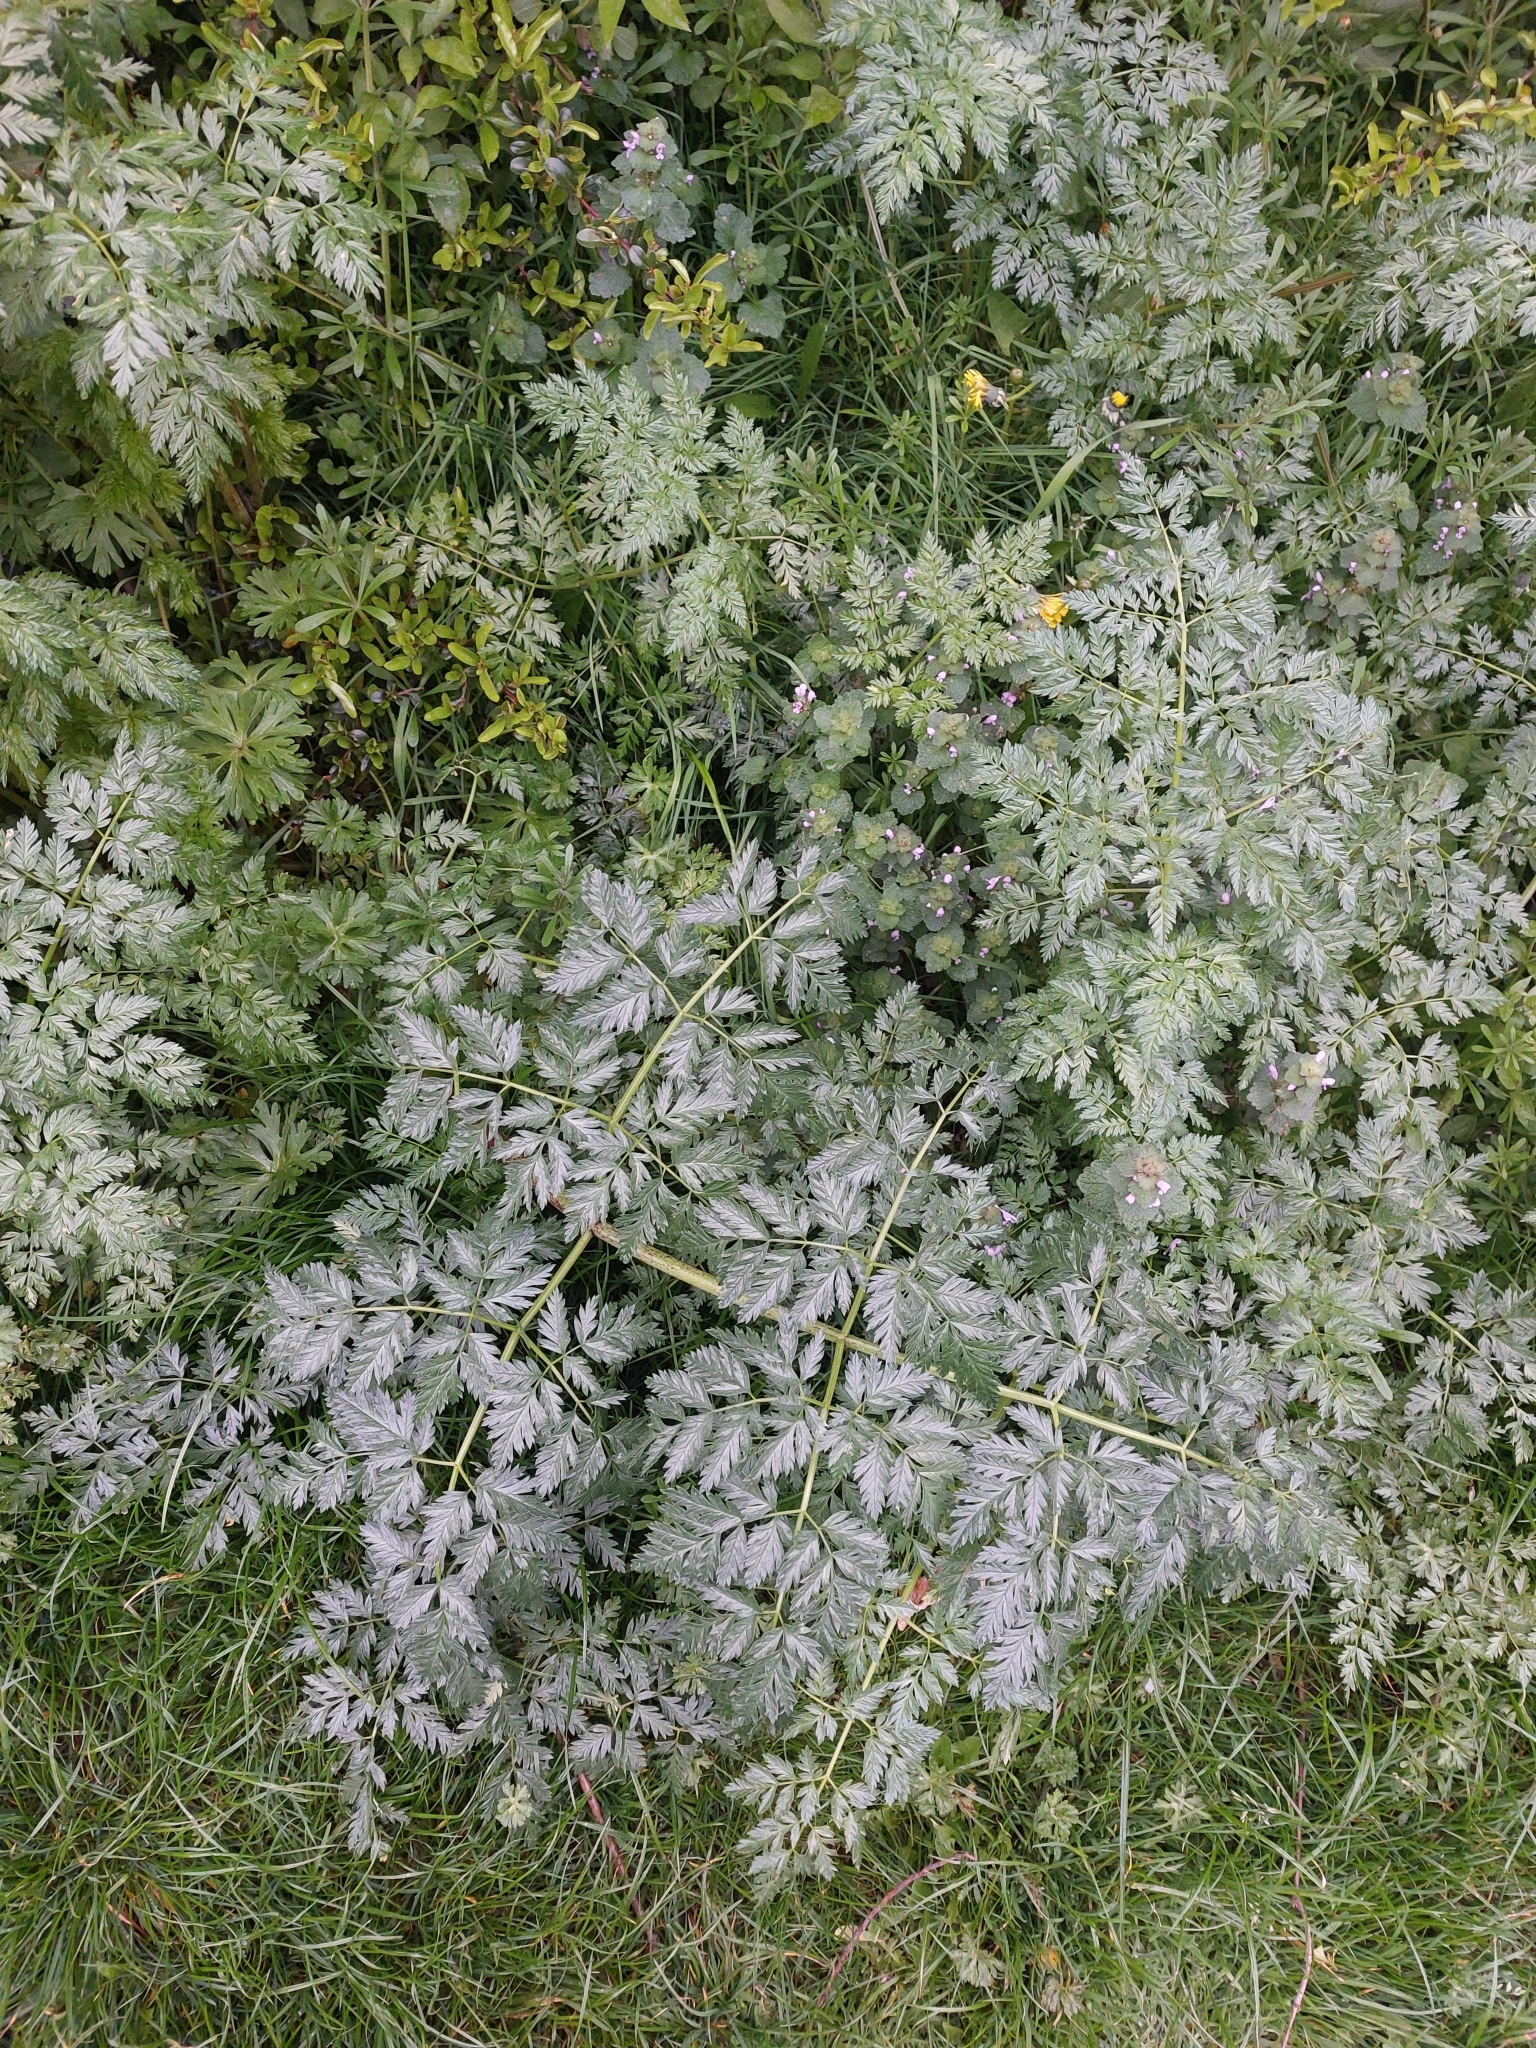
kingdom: Plantae
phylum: Tracheophyta
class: Magnoliopsida
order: Apiales
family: Apiaceae
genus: Conium
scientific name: Conium maculatum
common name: Hemlock
